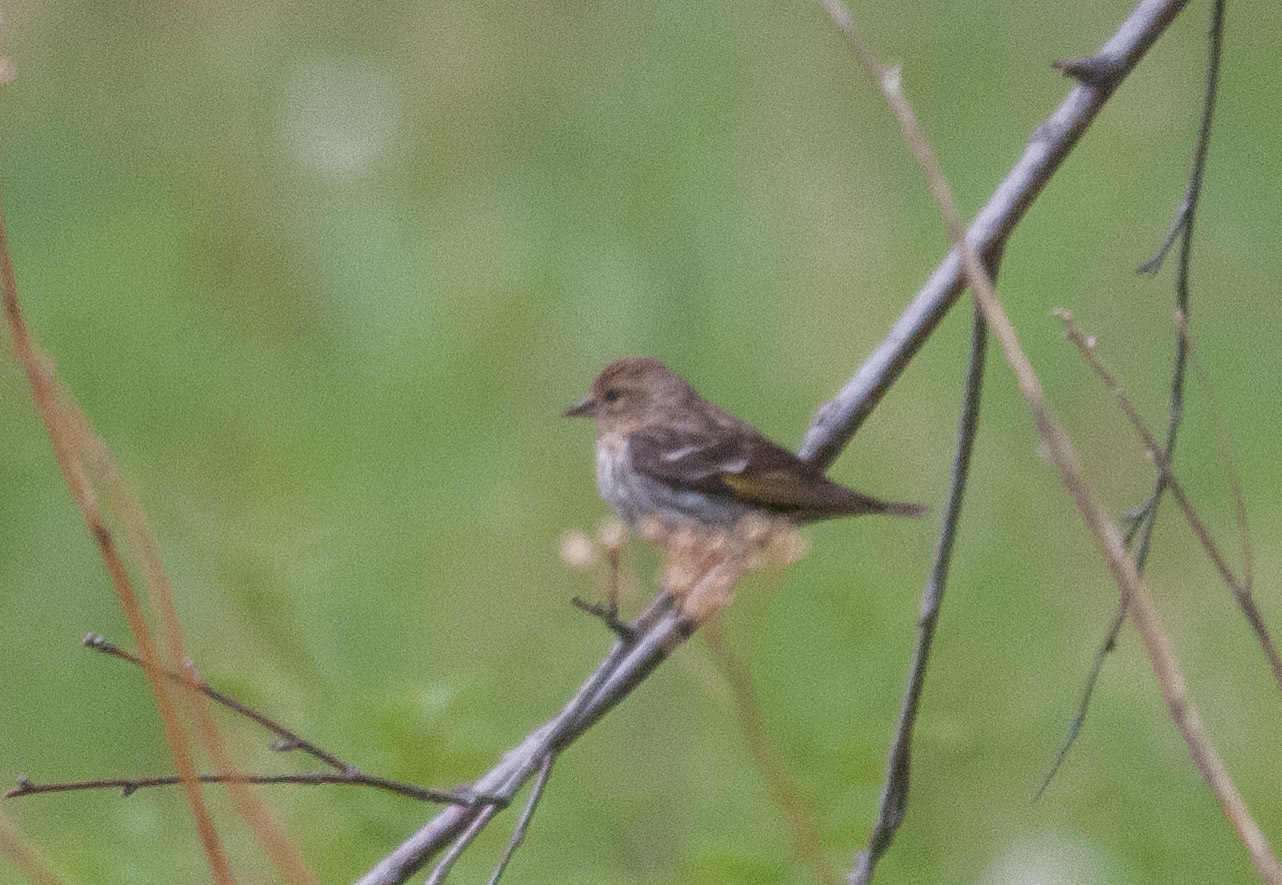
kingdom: Animalia
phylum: Chordata
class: Aves
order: Passeriformes
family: Fringillidae
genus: Spinus
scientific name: Spinus pinus
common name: Pine siskin
